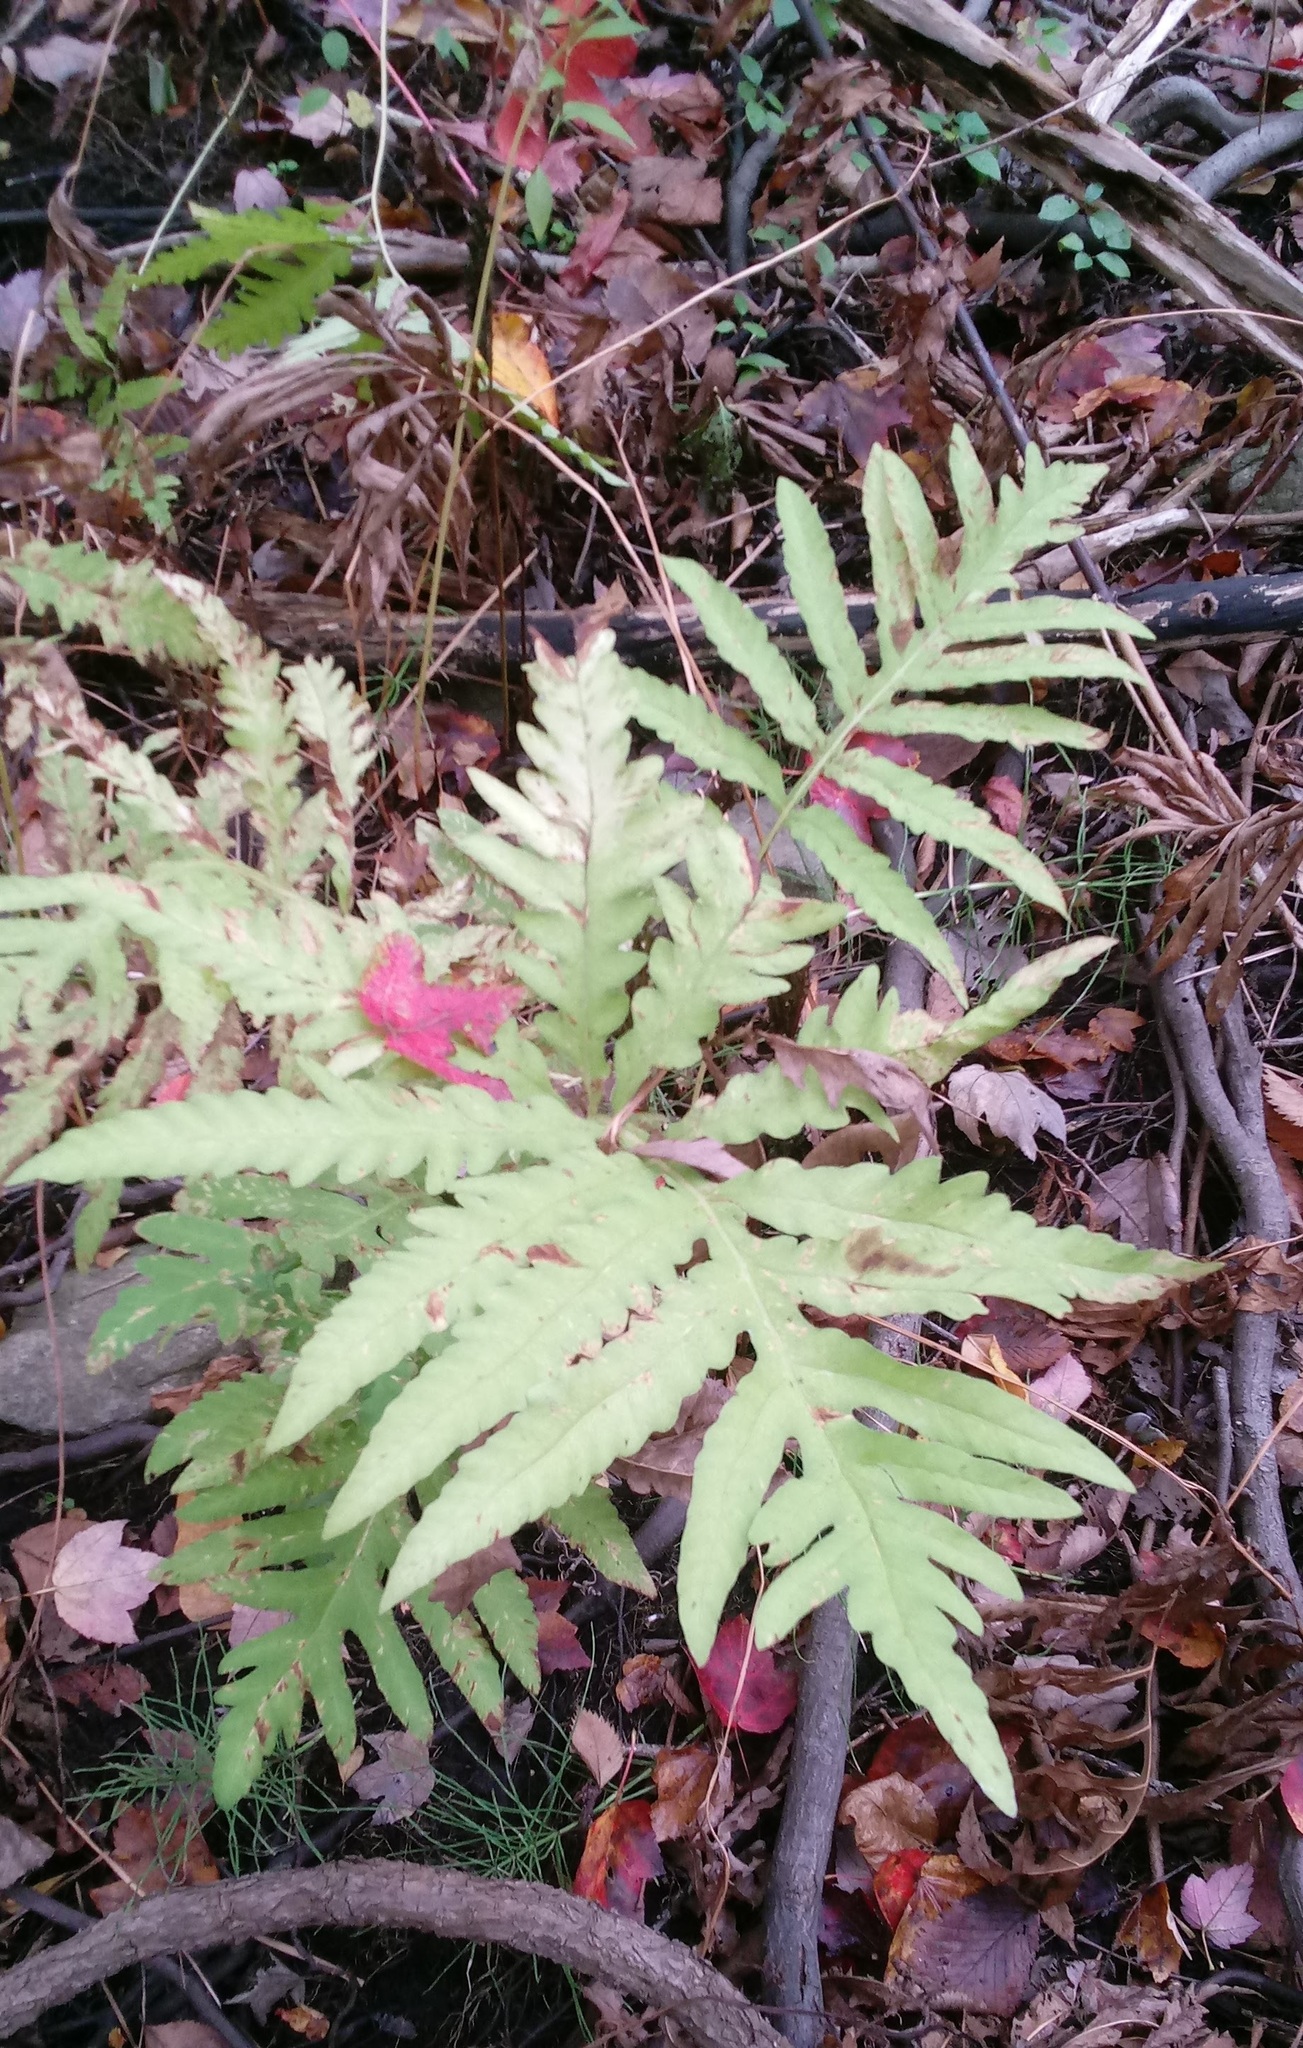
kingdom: Plantae
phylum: Tracheophyta
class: Polypodiopsida
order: Polypodiales
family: Onocleaceae
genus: Onoclea
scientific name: Onoclea sensibilis
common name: Sensitive fern
